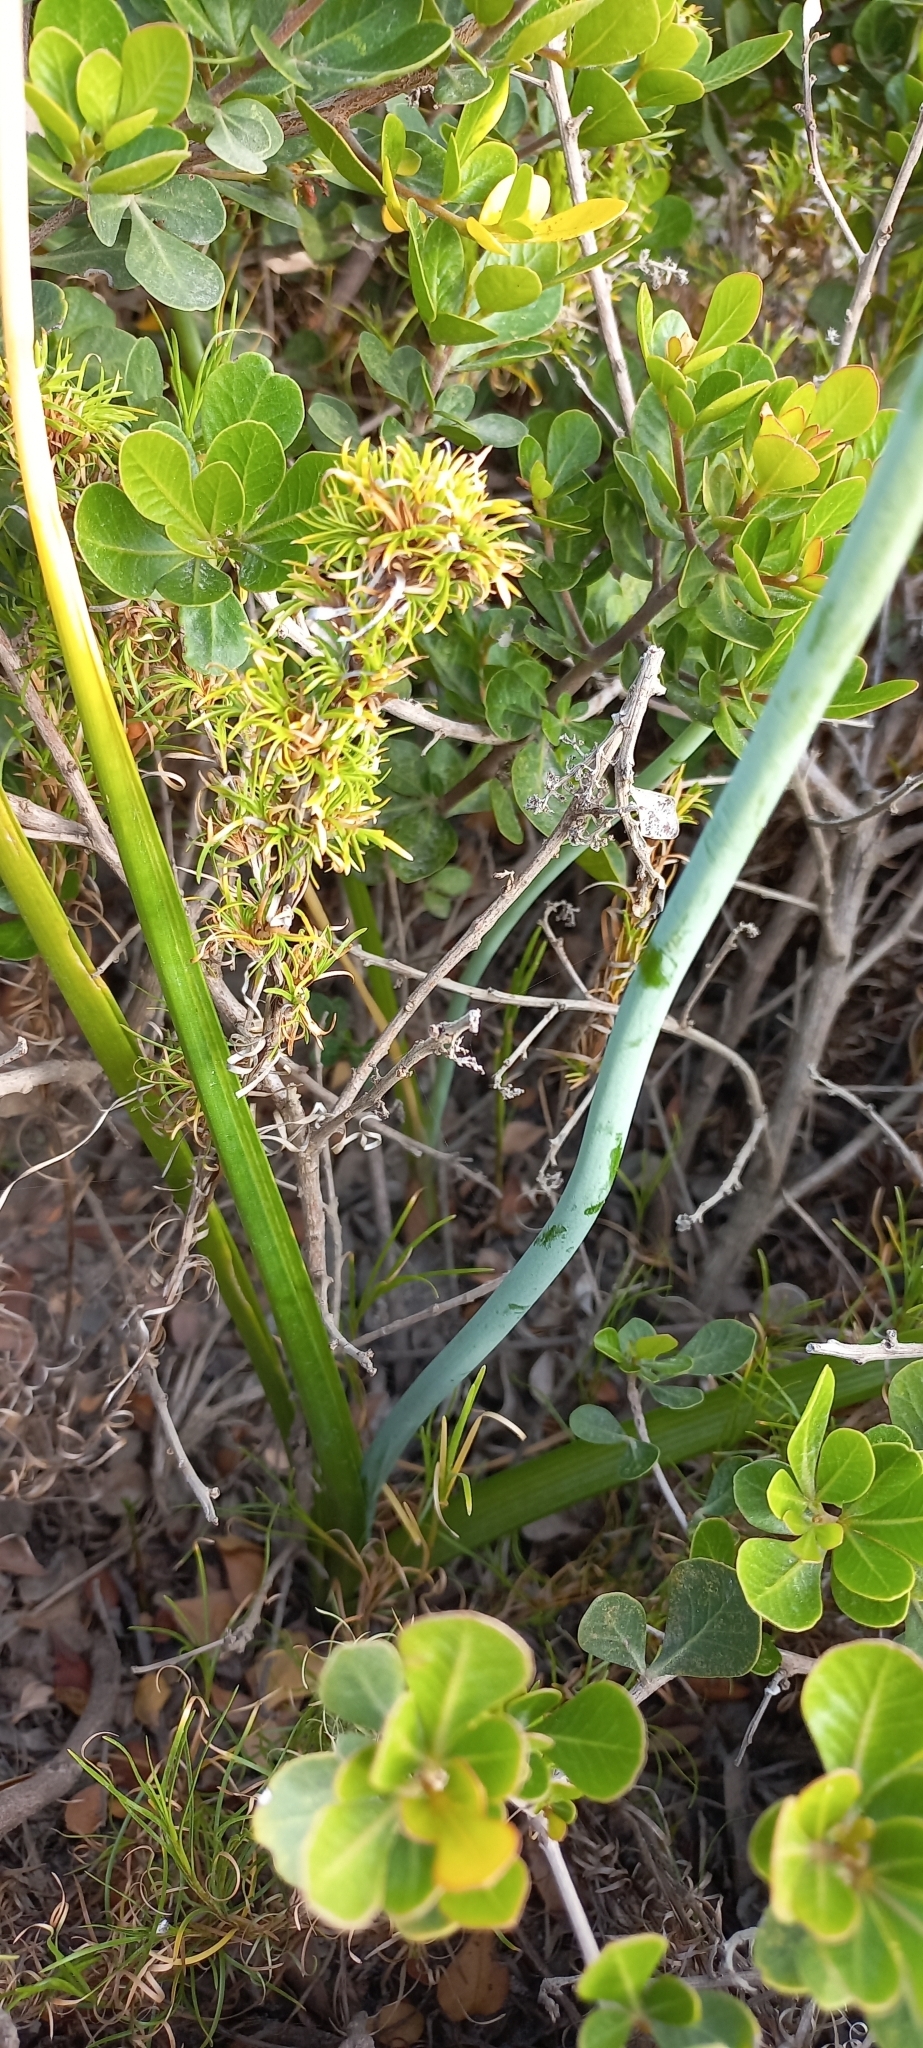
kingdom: Plantae
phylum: Tracheophyta
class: Magnoliopsida
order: Sapindales
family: Anacardiaceae
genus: Searsia
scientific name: Searsia glauca
